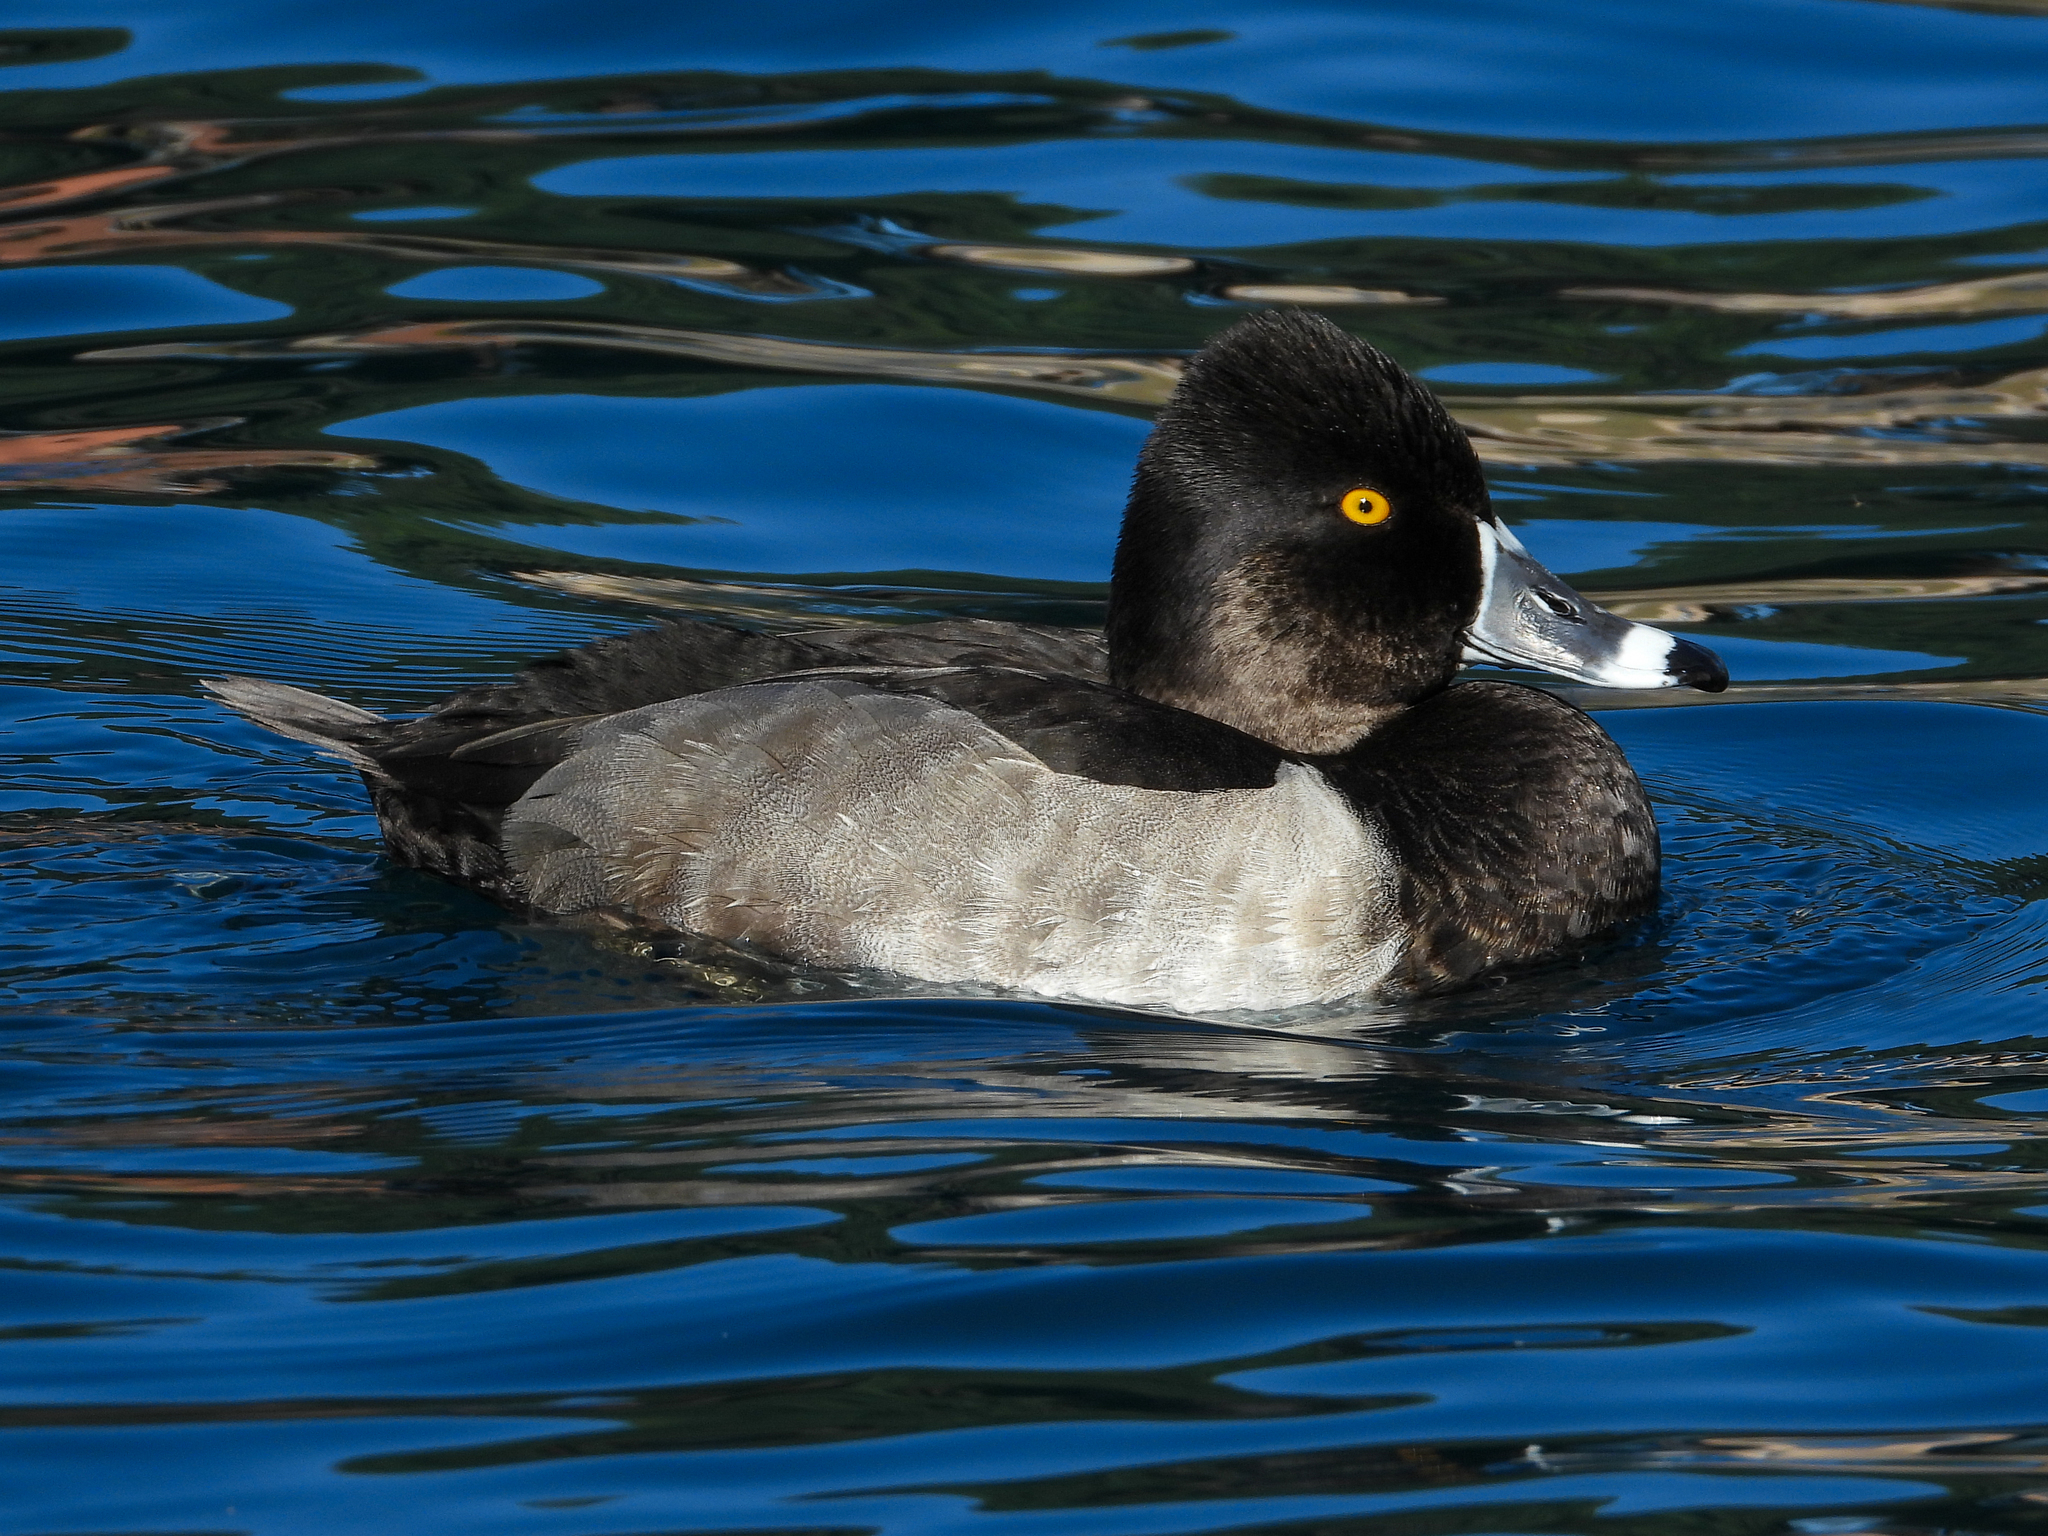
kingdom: Animalia
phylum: Chordata
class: Aves
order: Anseriformes
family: Anatidae
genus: Aythya
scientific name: Aythya collaris
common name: Ring-necked duck
